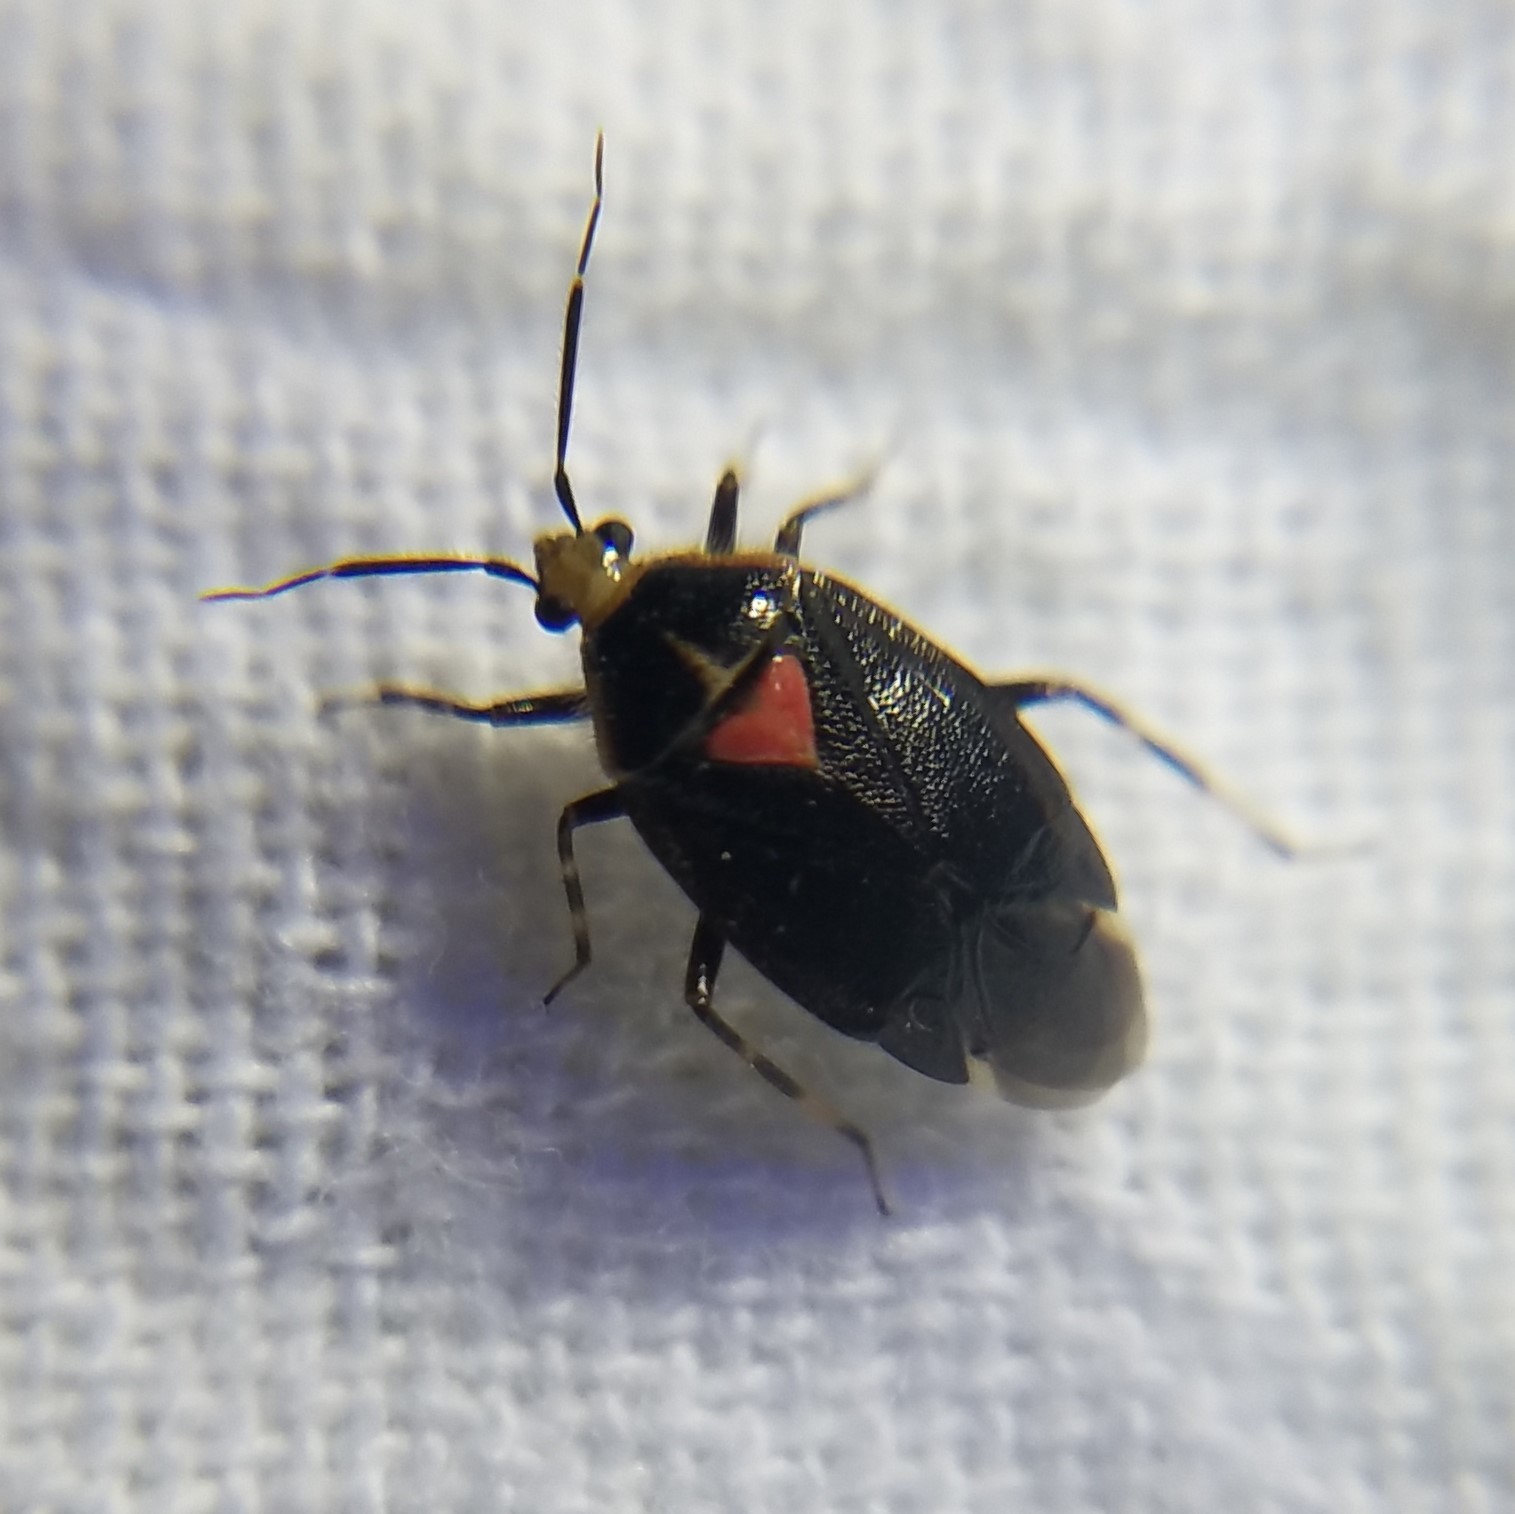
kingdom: Animalia
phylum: Arthropoda
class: Insecta
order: Hemiptera
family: Miridae
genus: Deraeocoris
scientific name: Deraeocoris sayi
